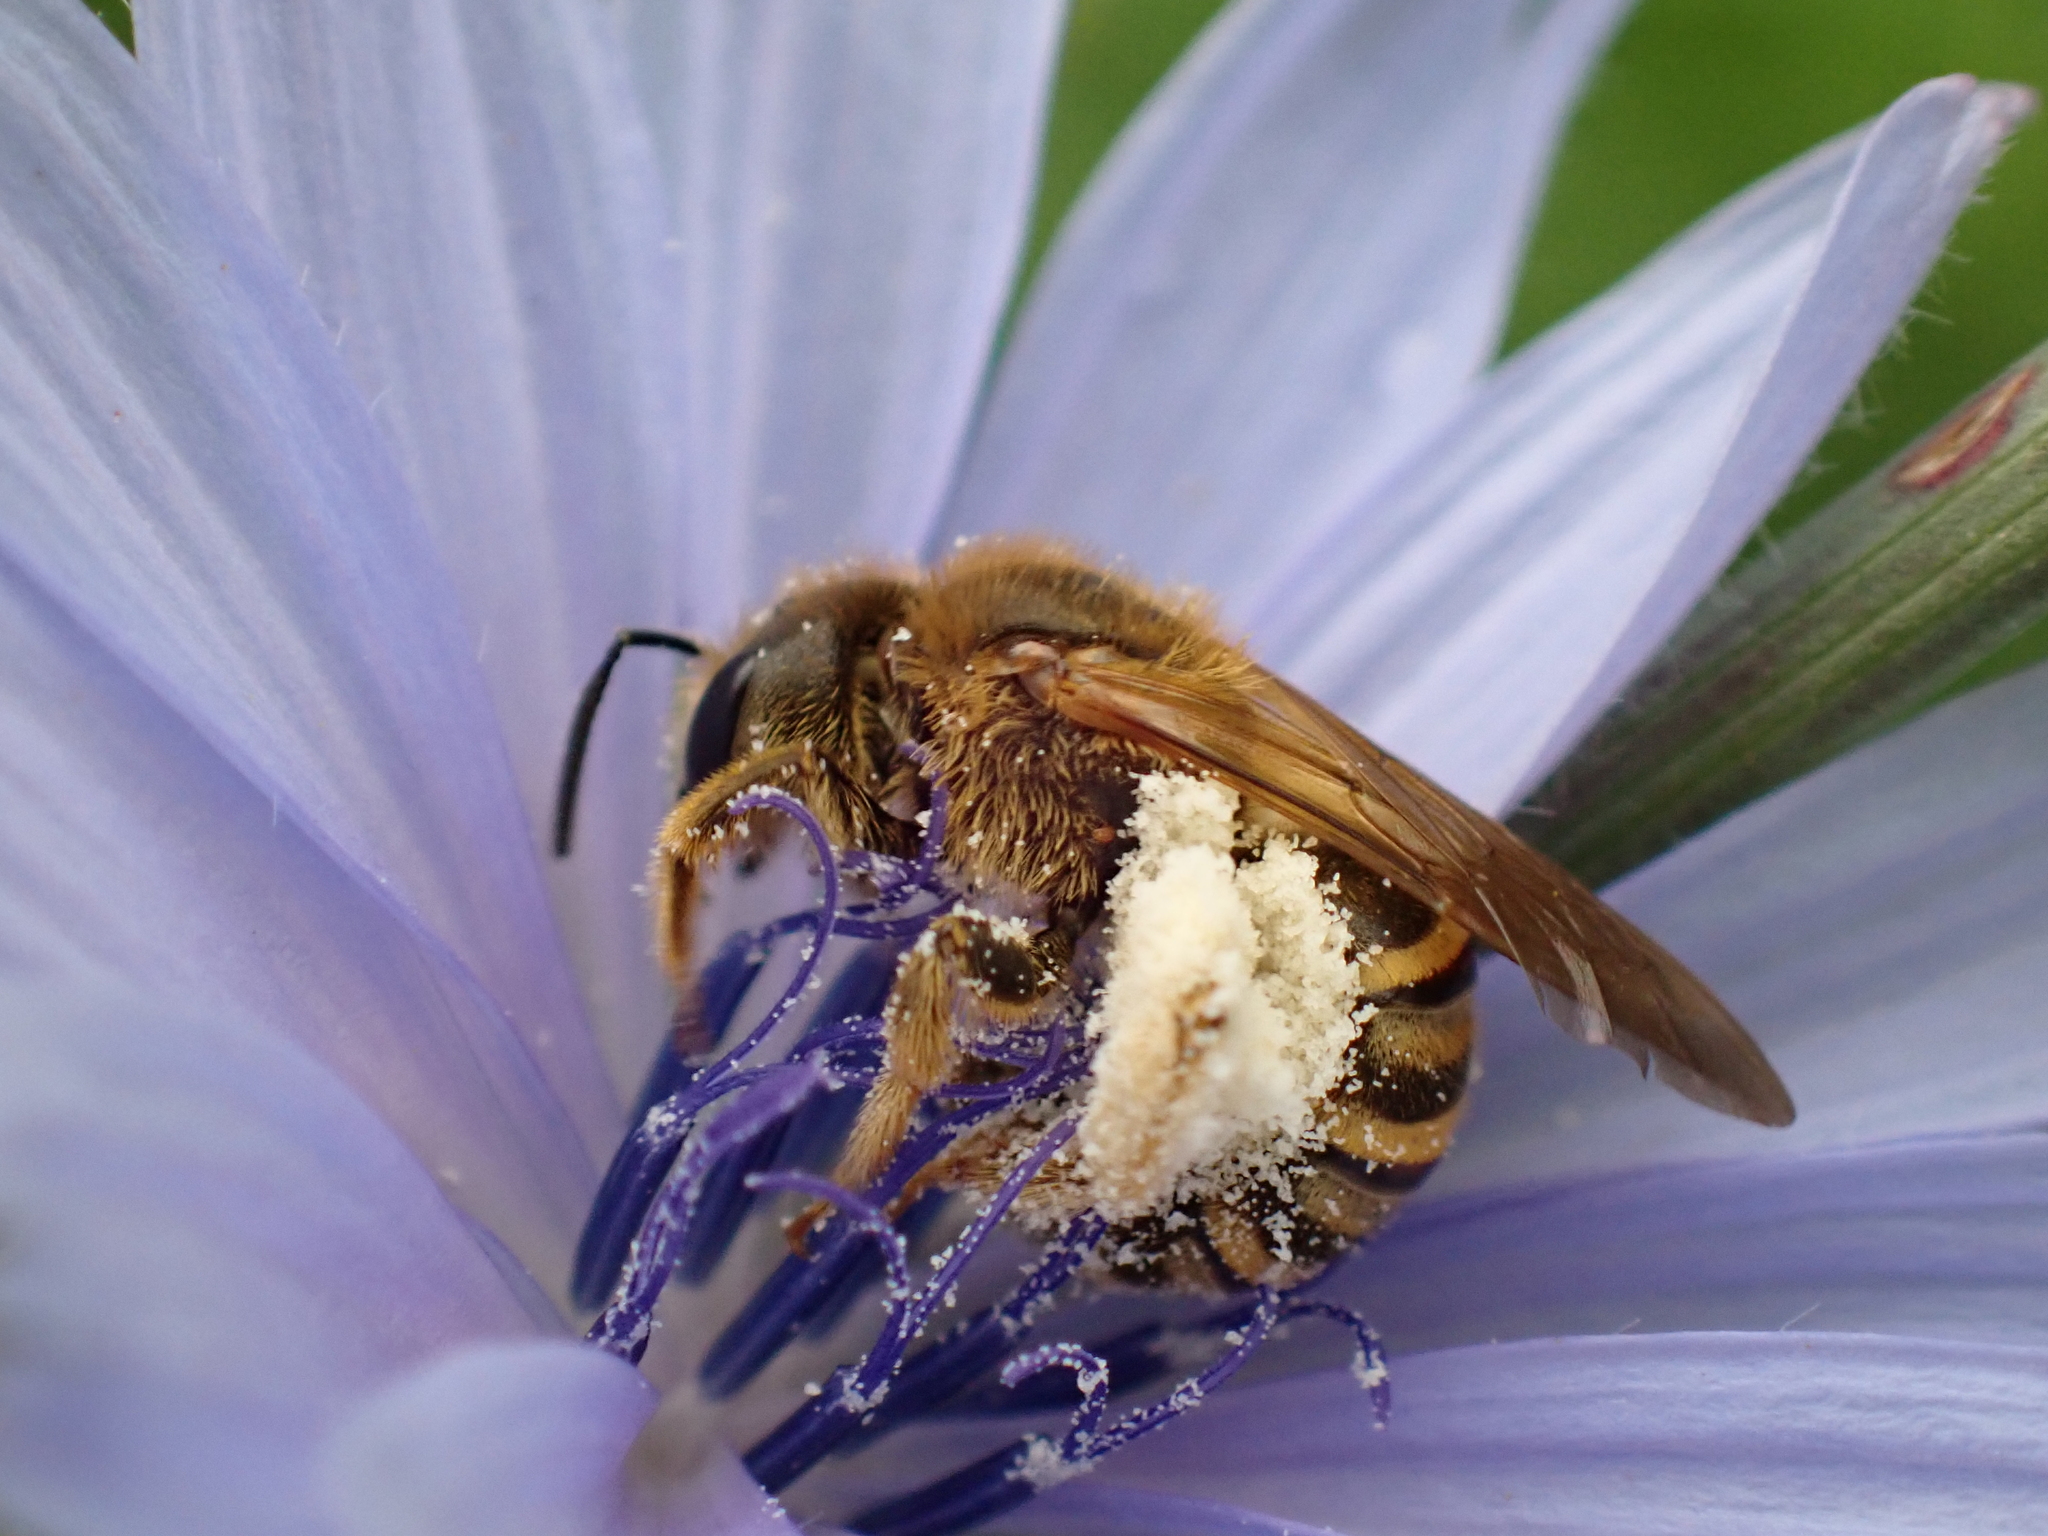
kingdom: Animalia
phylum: Arthropoda
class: Insecta
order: Hymenoptera
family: Halictidae
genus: Halictus
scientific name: Halictus scabiosae
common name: Great banded furrow bee
